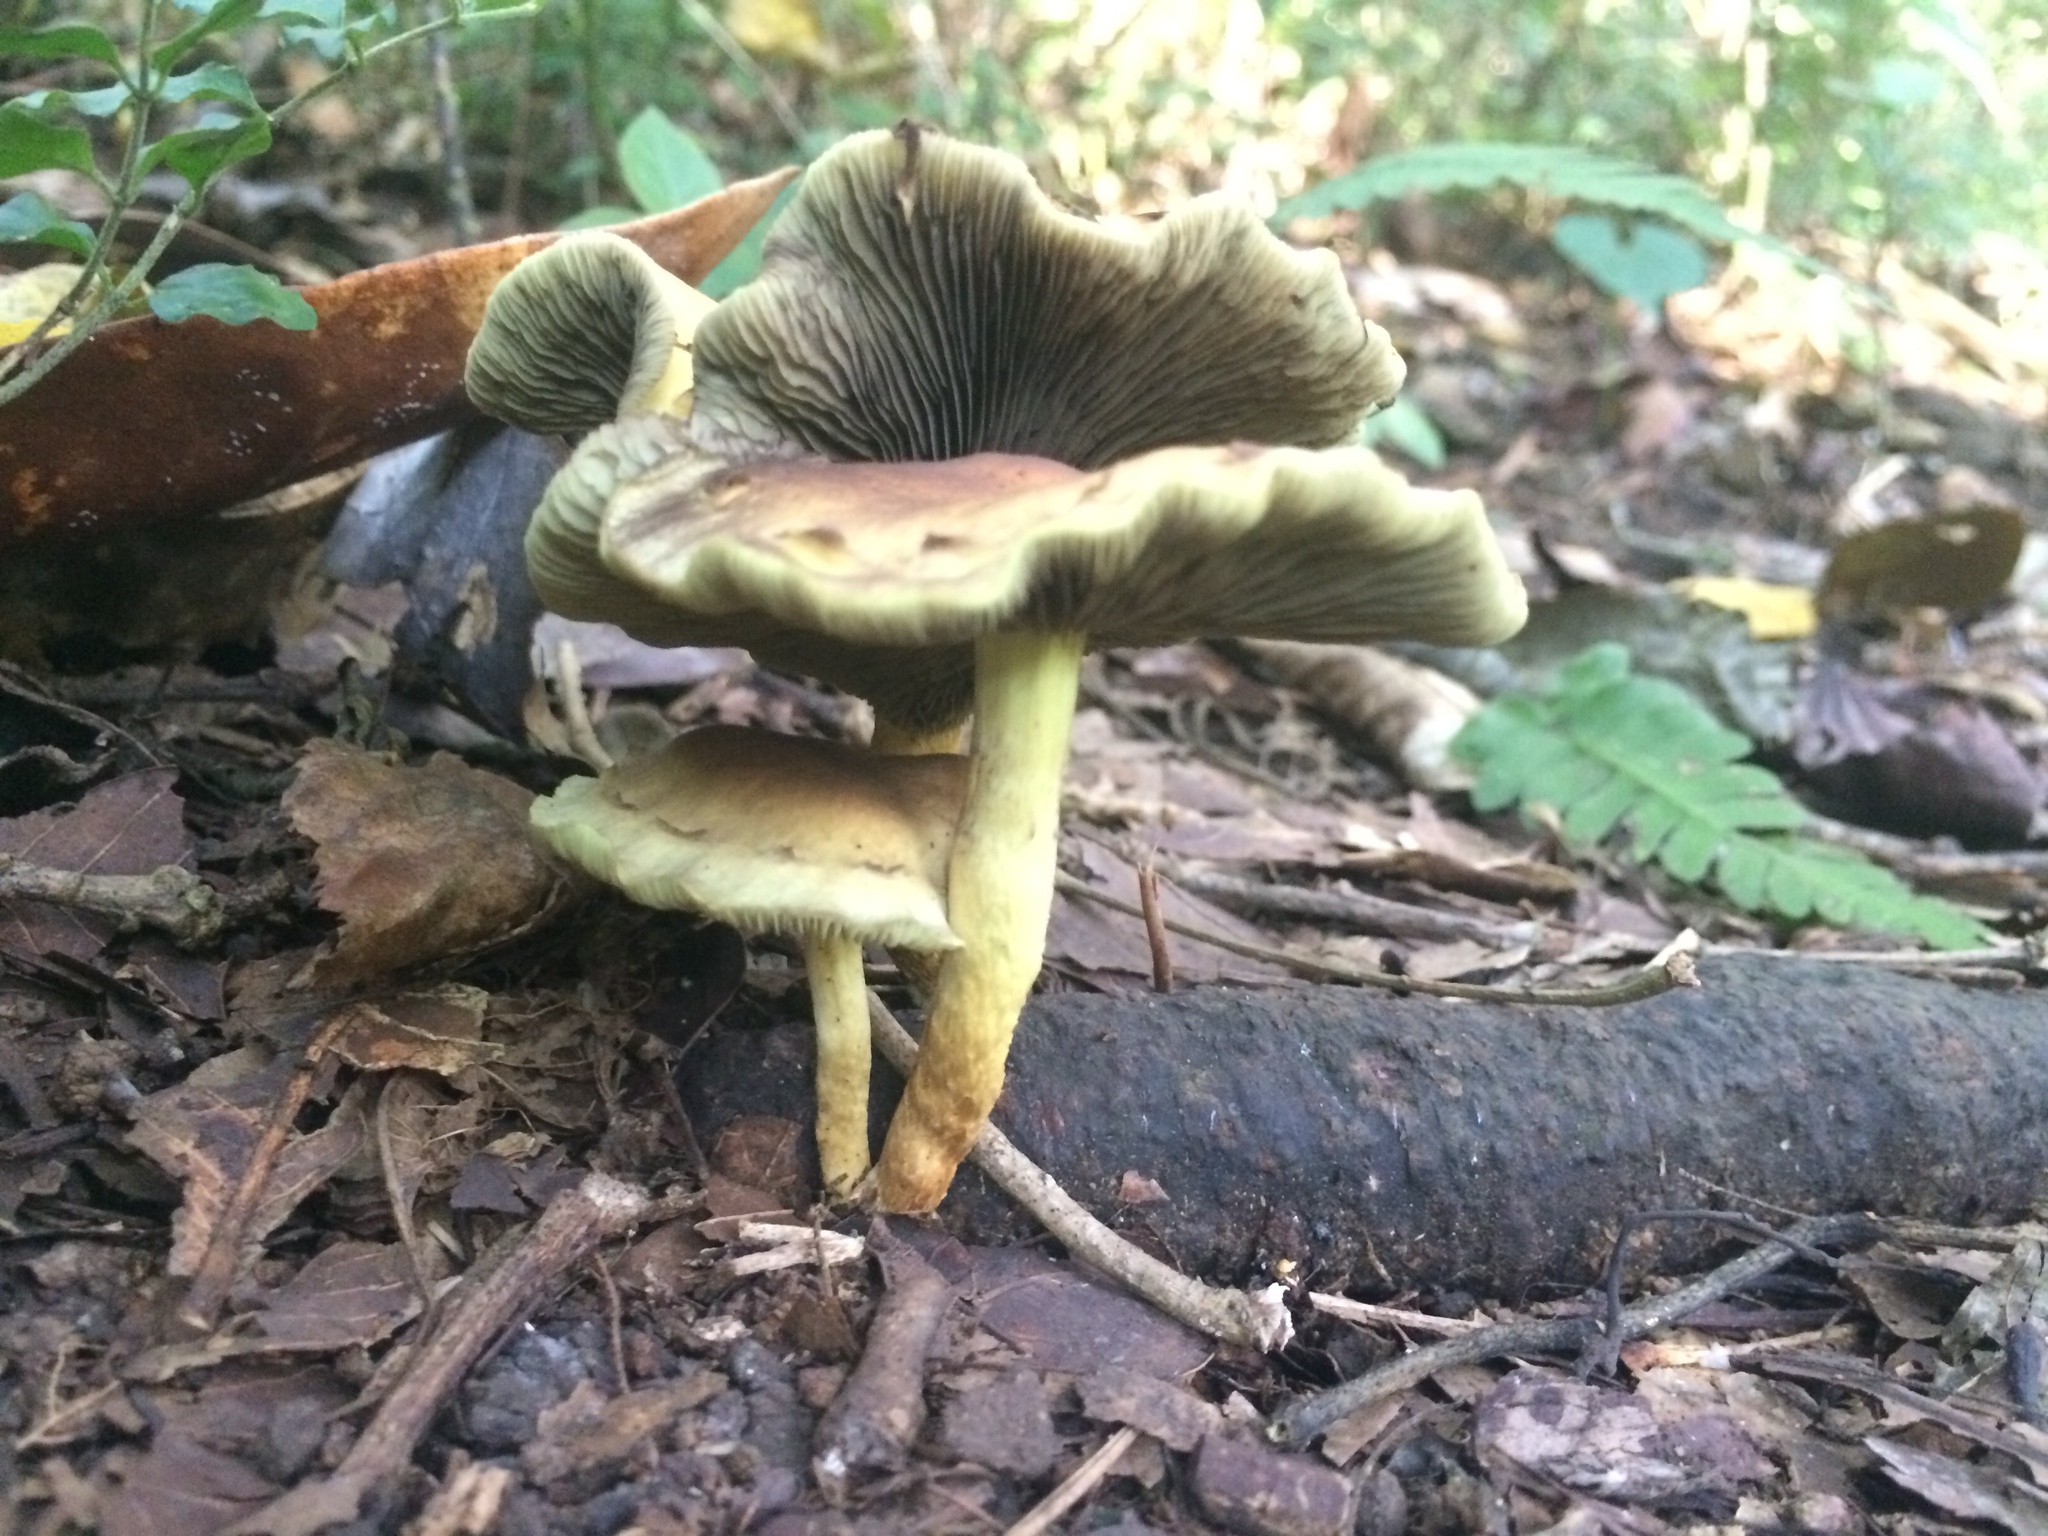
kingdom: Fungi
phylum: Basidiomycota
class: Agaricomycetes
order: Agaricales
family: Strophariaceae
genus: Hypholoma
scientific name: Hypholoma fasciculare
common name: Sulphur tuft
